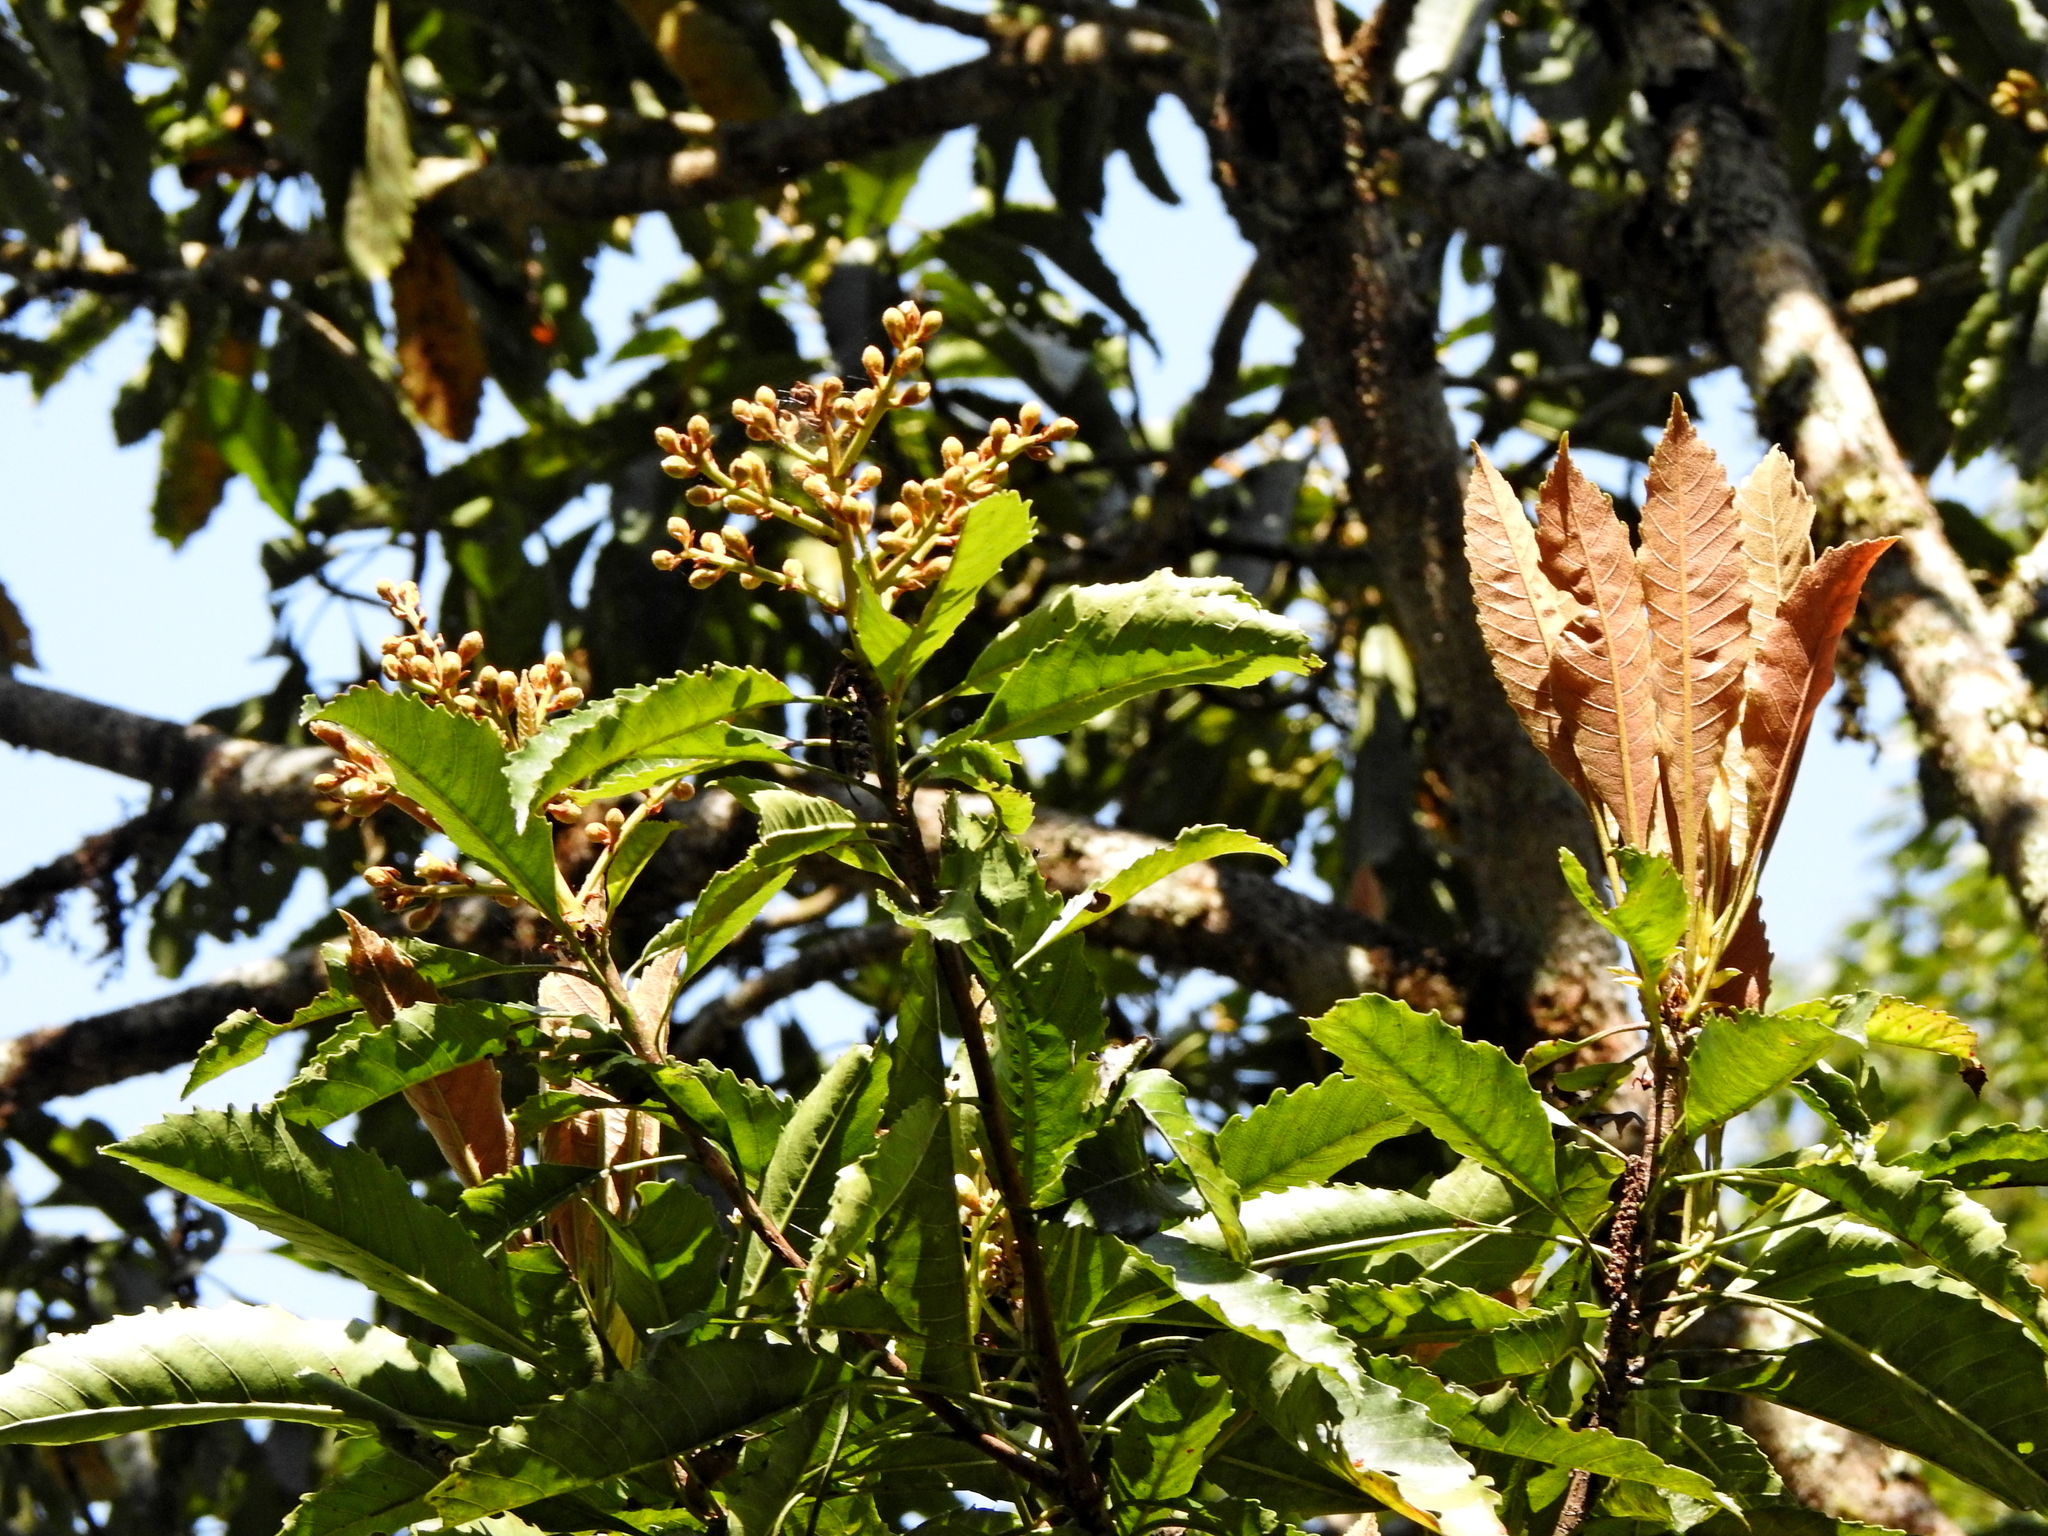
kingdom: Plantae
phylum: Tracheophyta
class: Magnoliopsida
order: Rosales
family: Rosaceae
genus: Rhaphiolepis
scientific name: Rhaphiolepis deflexa
